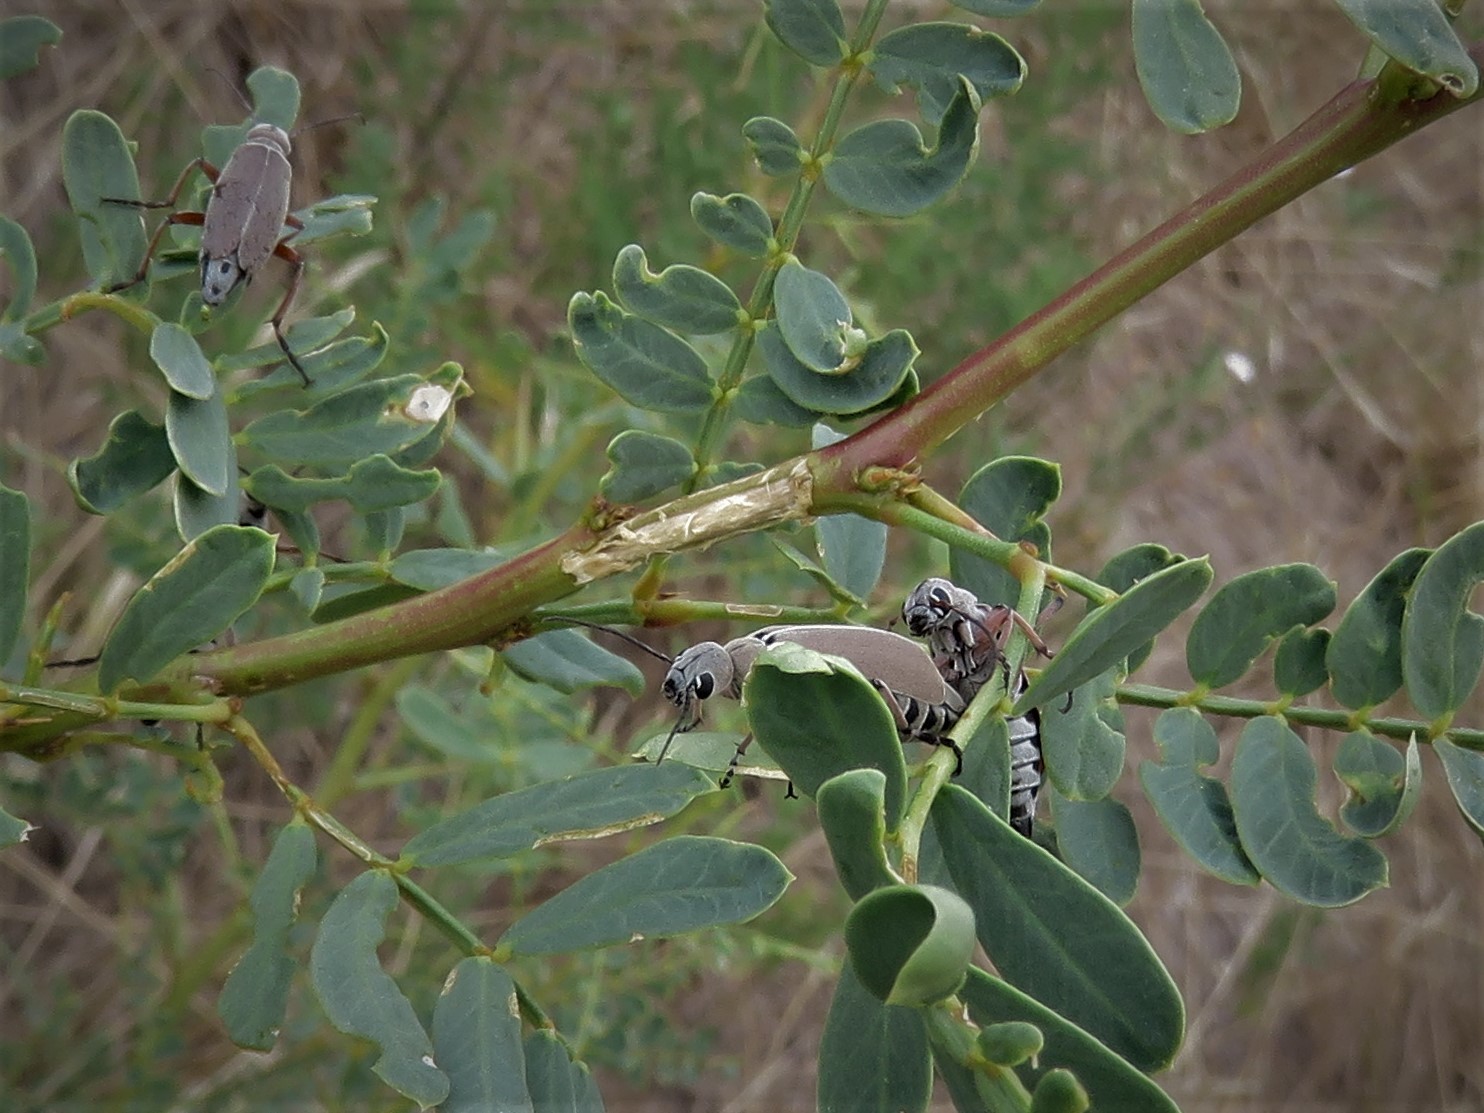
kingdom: Animalia
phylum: Arthropoda
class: Insecta
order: Coleoptera
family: Meloidae
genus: Epicauta
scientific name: Epicauta nigritarsis
